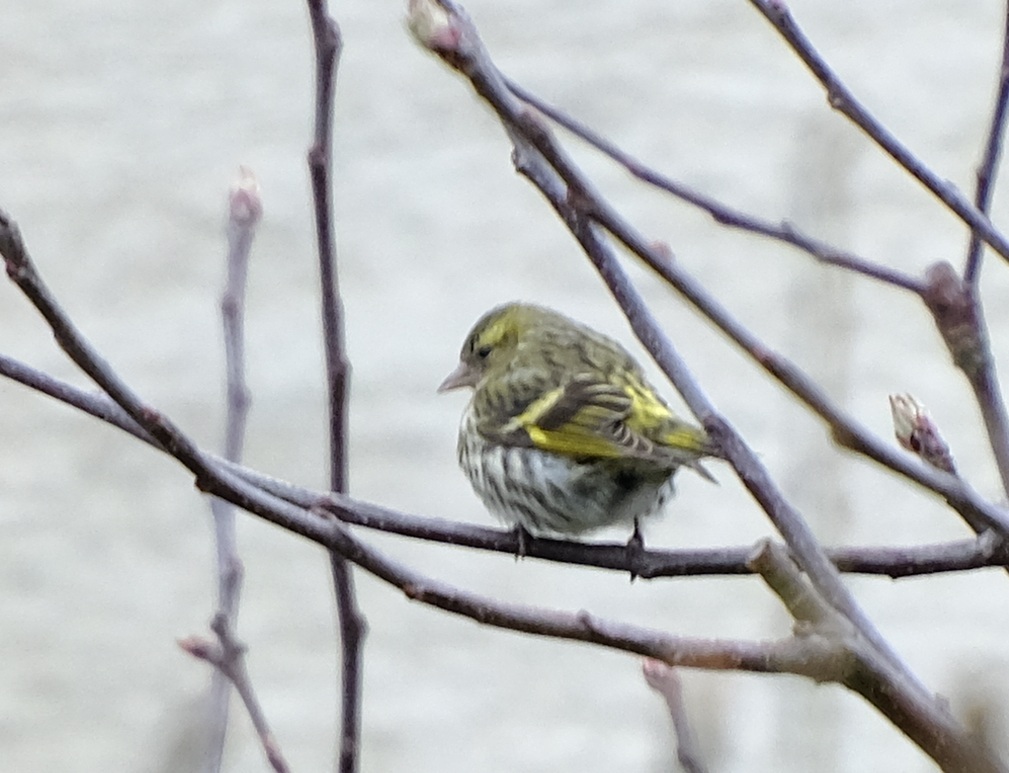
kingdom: Animalia
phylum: Chordata
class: Aves
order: Passeriformes
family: Fringillidae
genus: Spinus
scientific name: Spinus spinus
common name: Eurasian siskin
